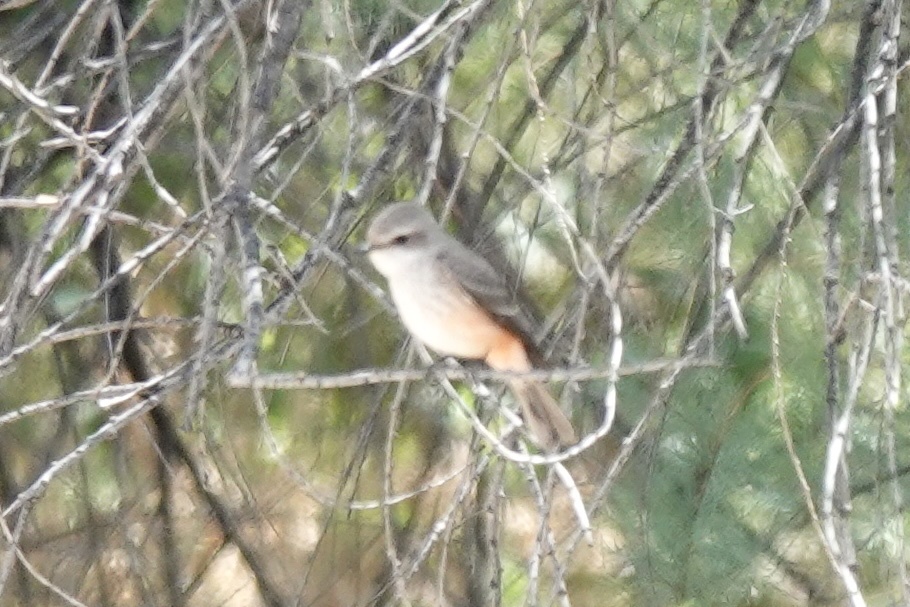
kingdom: Animalia
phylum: Chordata
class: Aves
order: Passeriformes
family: Tyrannidae
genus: Pyrocephalus
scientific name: Pyrocephalus rubinus
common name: Vermilion flycatcher
